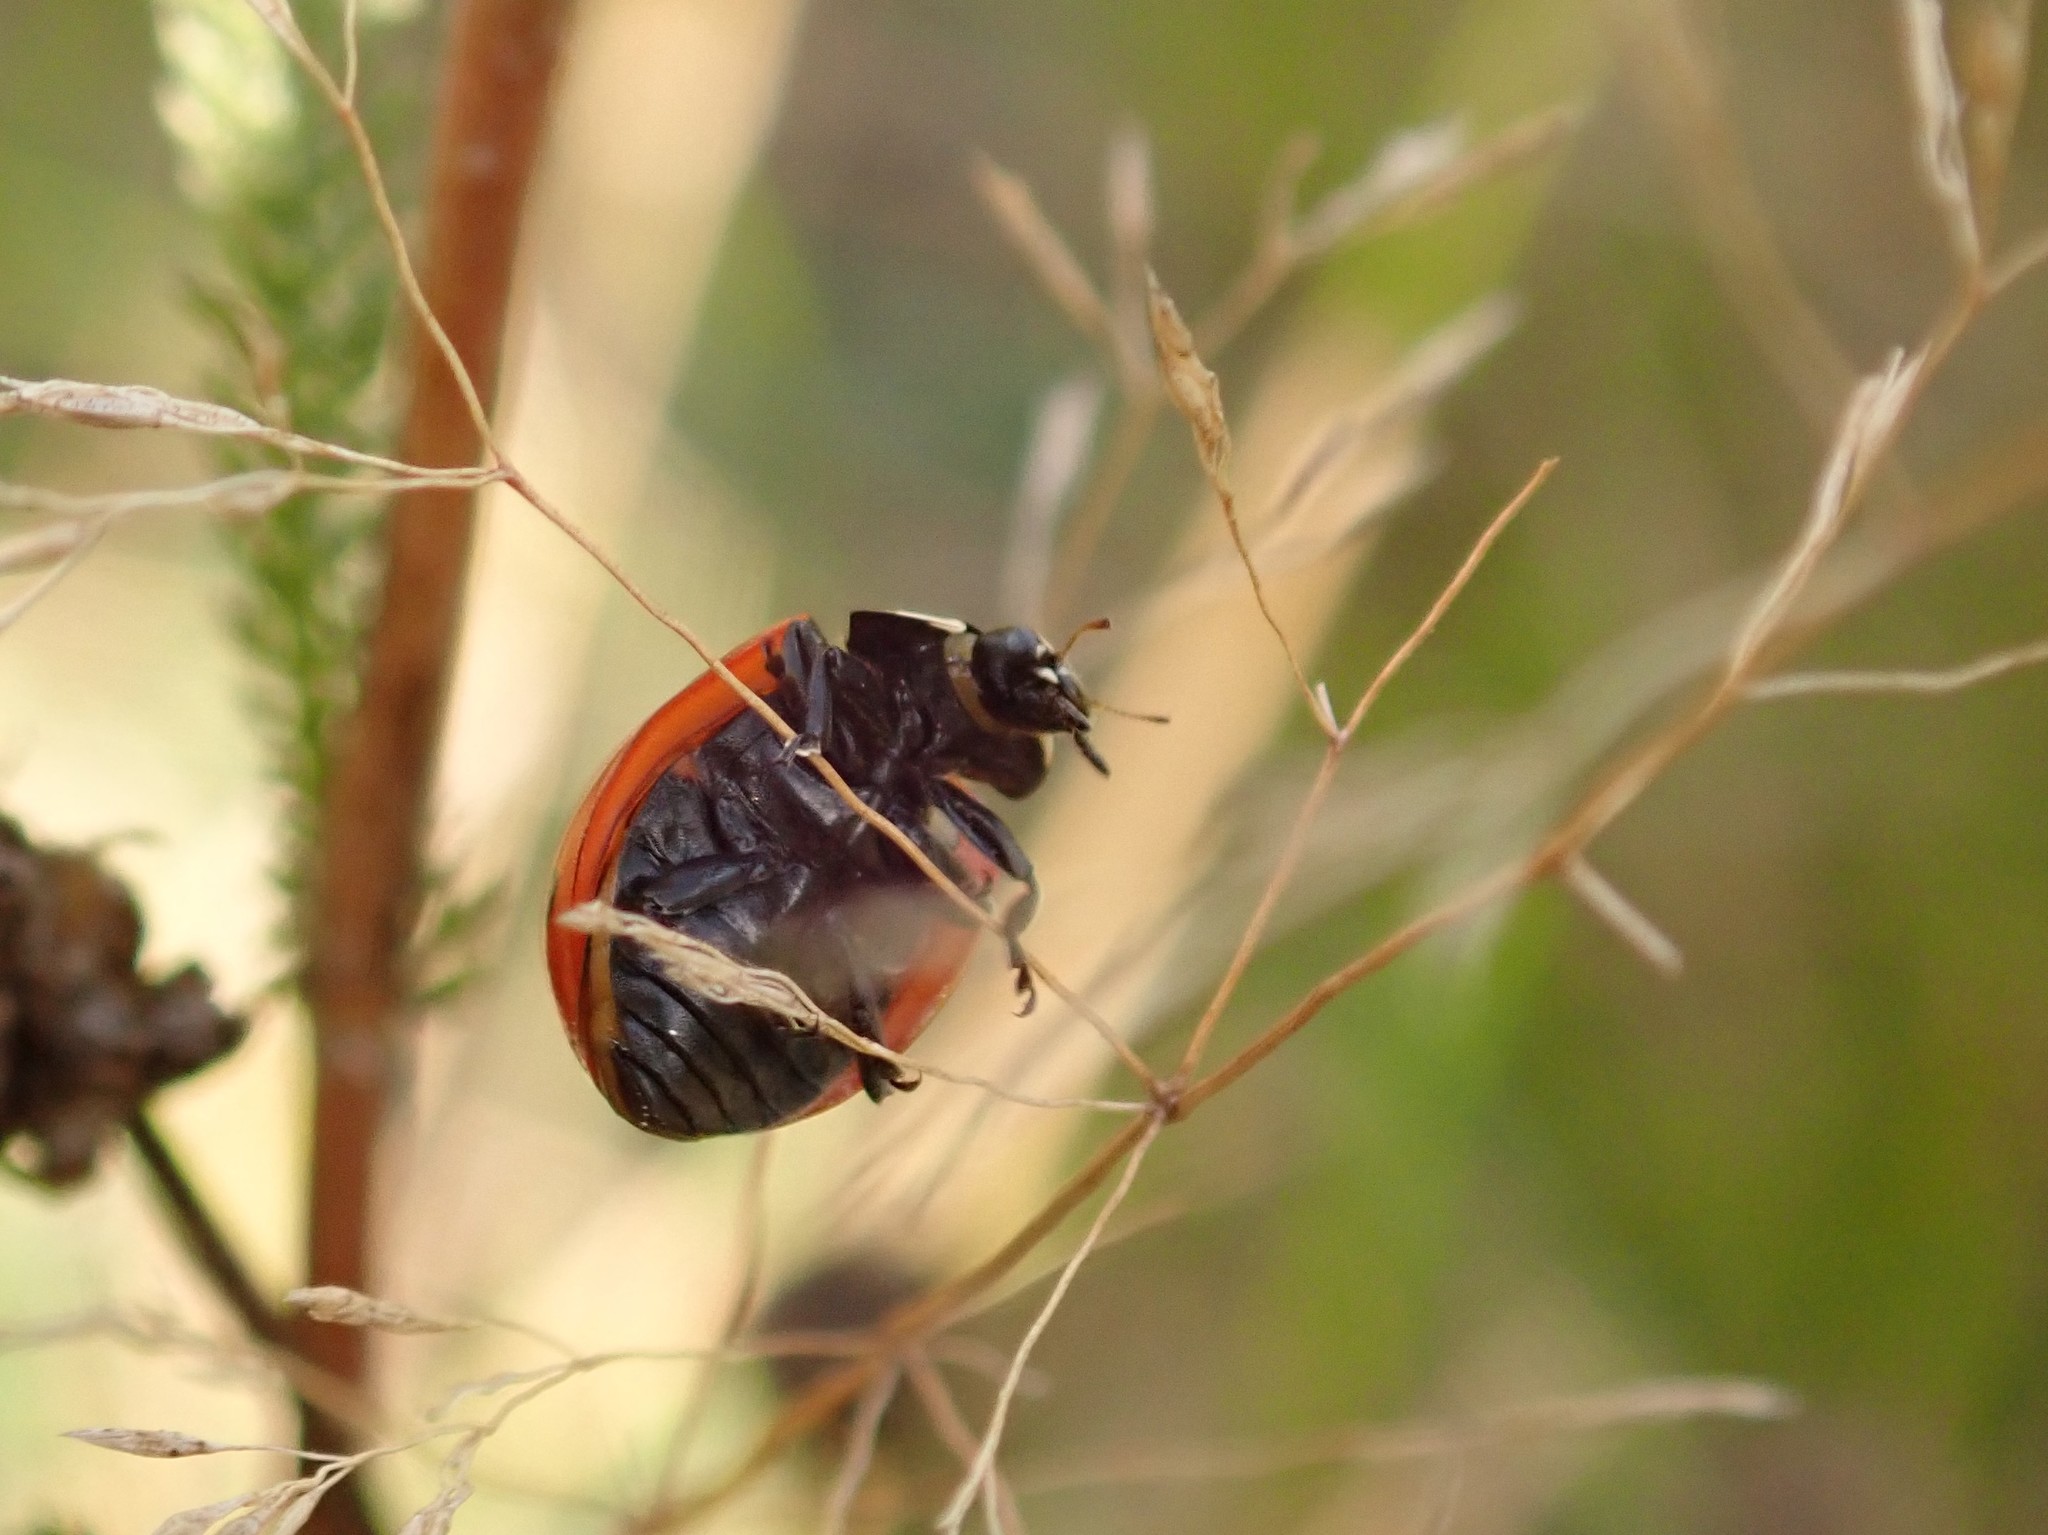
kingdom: Animalia
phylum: Arthropoda
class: Insecta
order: Coleoptera
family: Coccinellidae
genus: Coccinella
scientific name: Coccinella septempunctata
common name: Sevenspotted lady beetle
